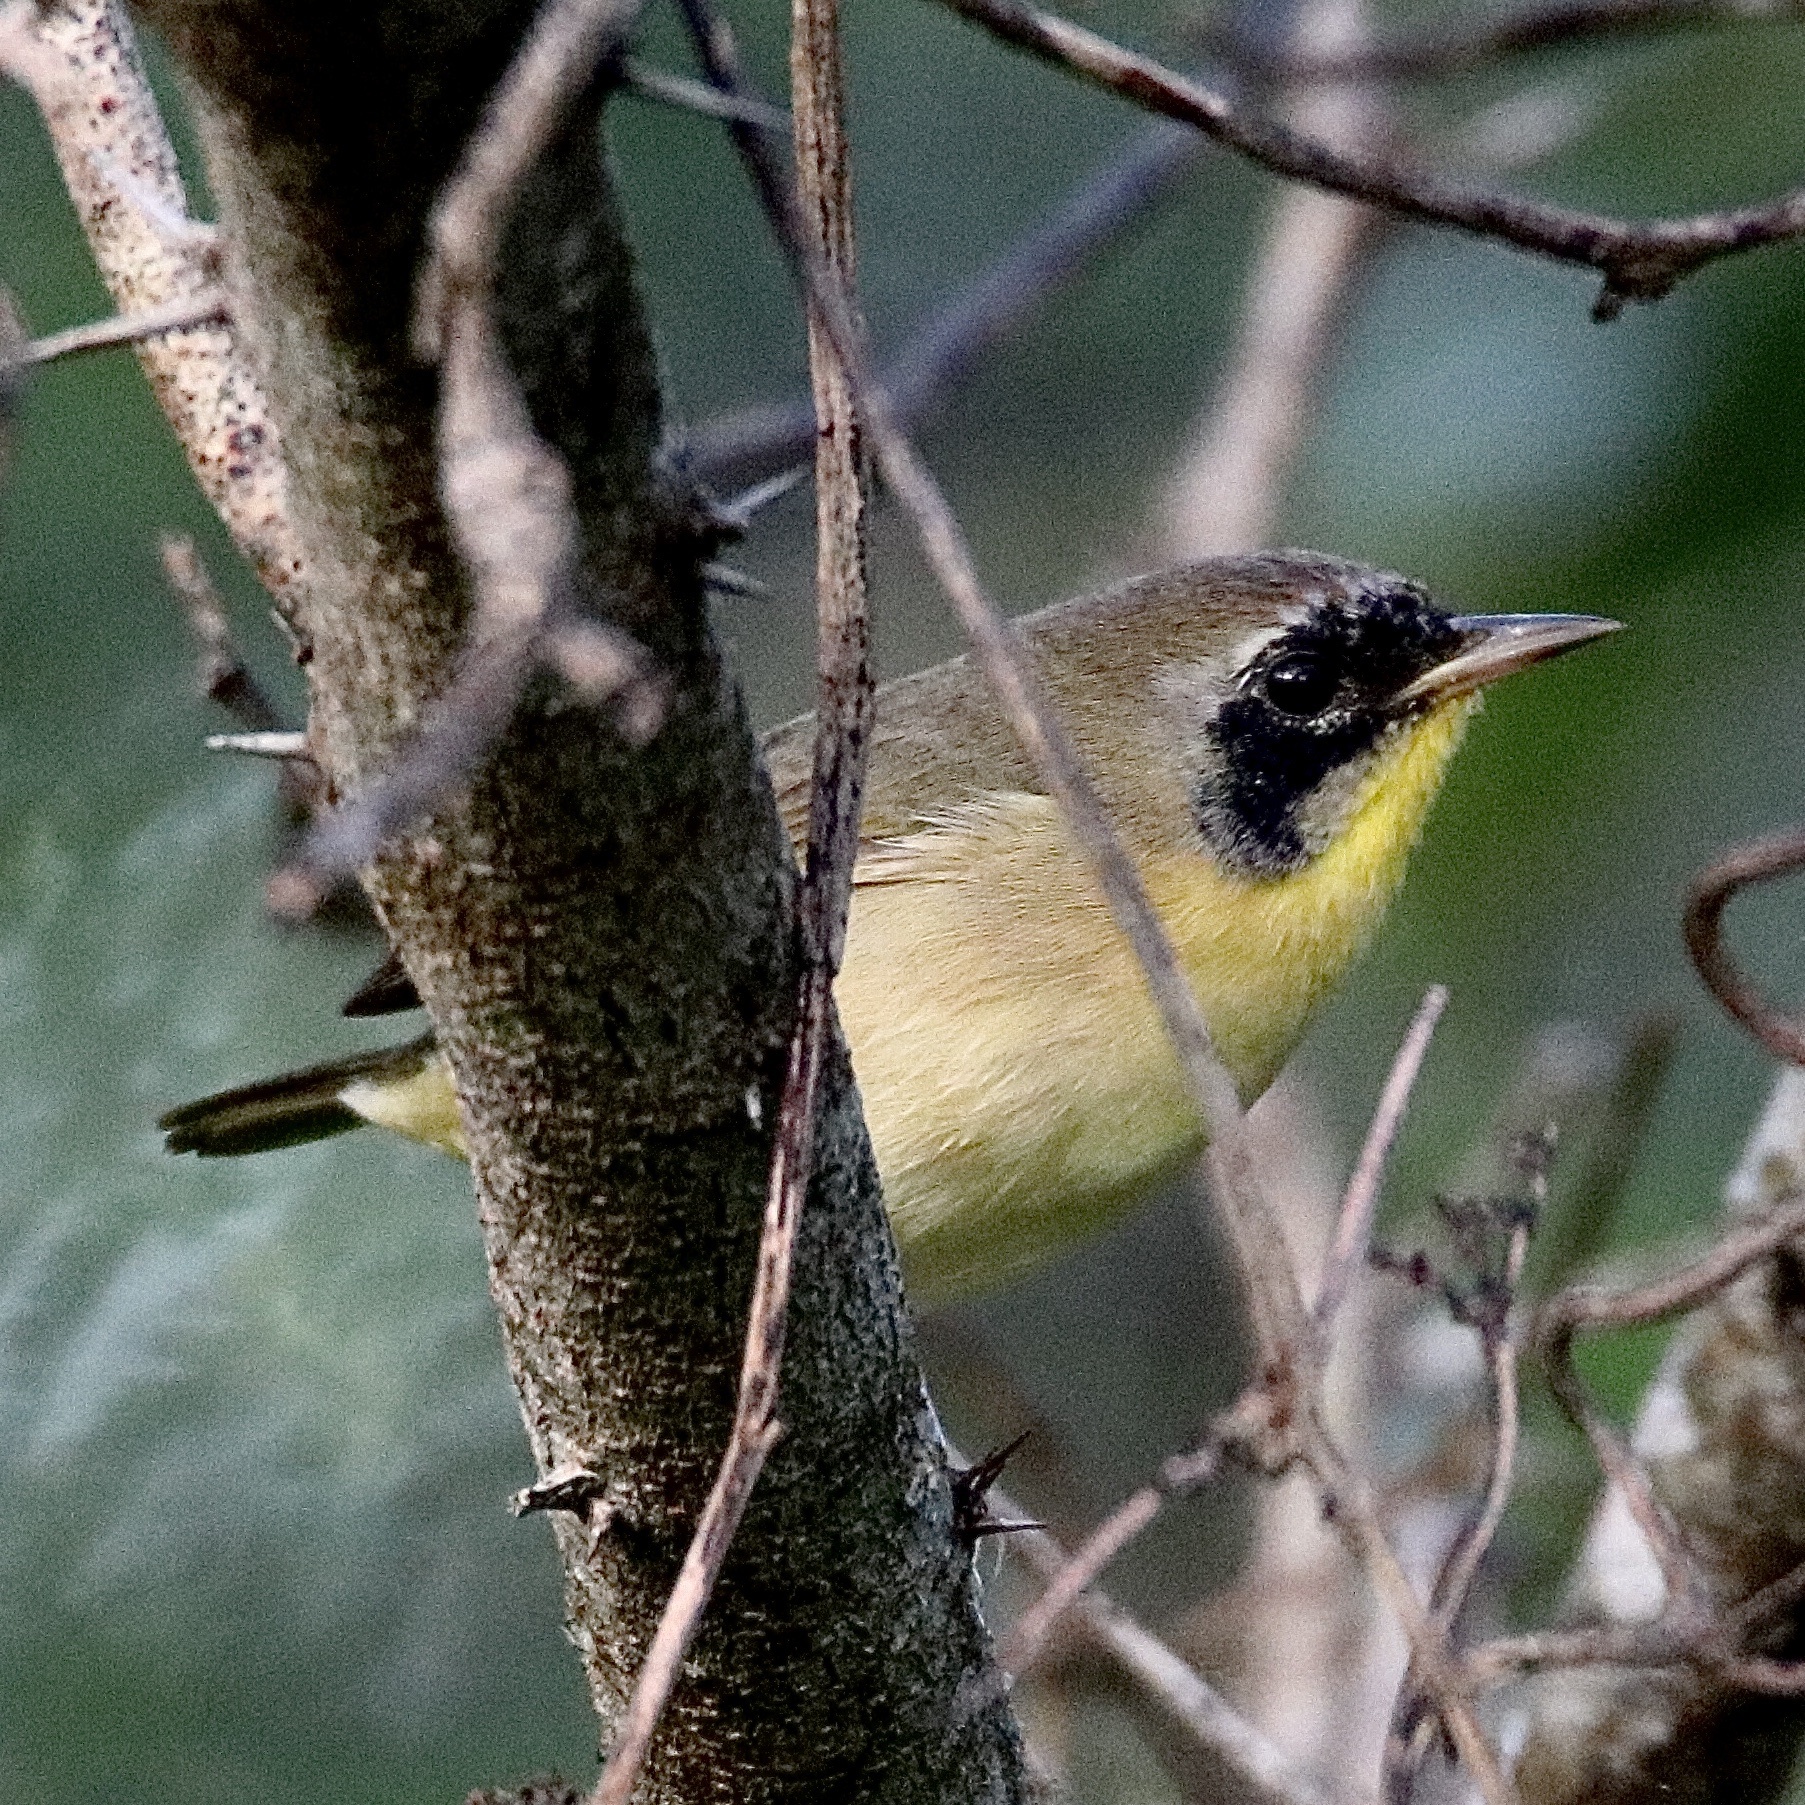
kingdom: Animalia
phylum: Chordata
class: Aves
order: Passeriformes
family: Parulidae
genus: Geothlypis
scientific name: Geothlypis trichas
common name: Common yellowthroat
